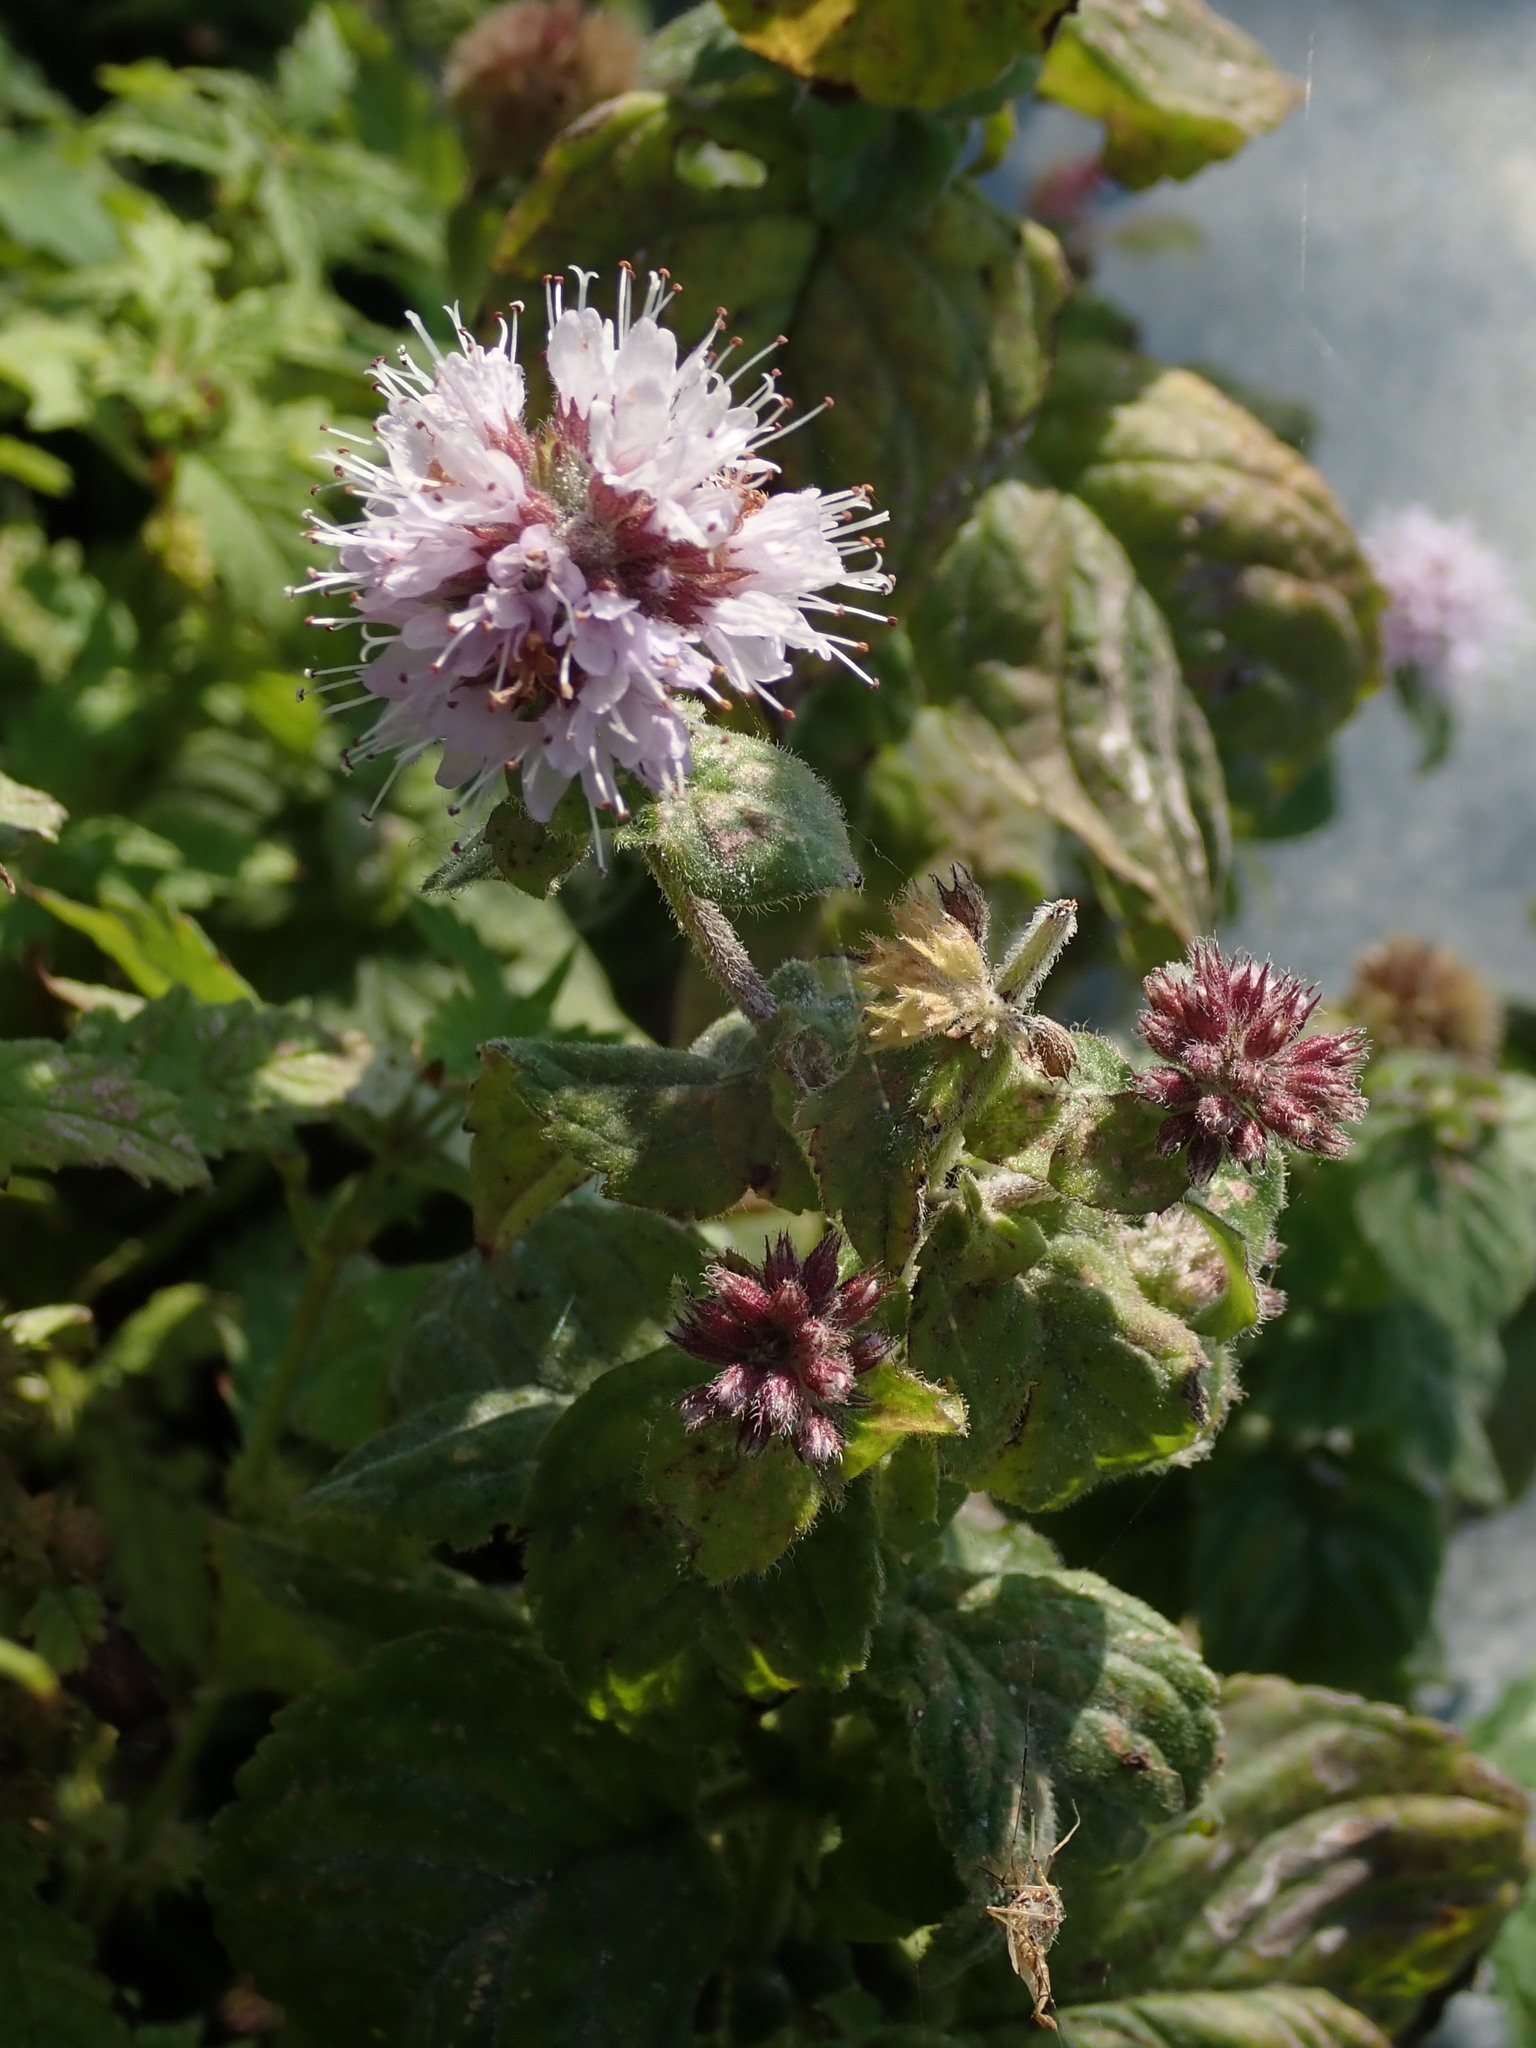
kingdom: Plantae
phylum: Tracheophyta
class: Magnoliopsida
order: Lamiales
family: Lamiaceae
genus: Mentha
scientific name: Mentha aquatica
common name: Water mint
